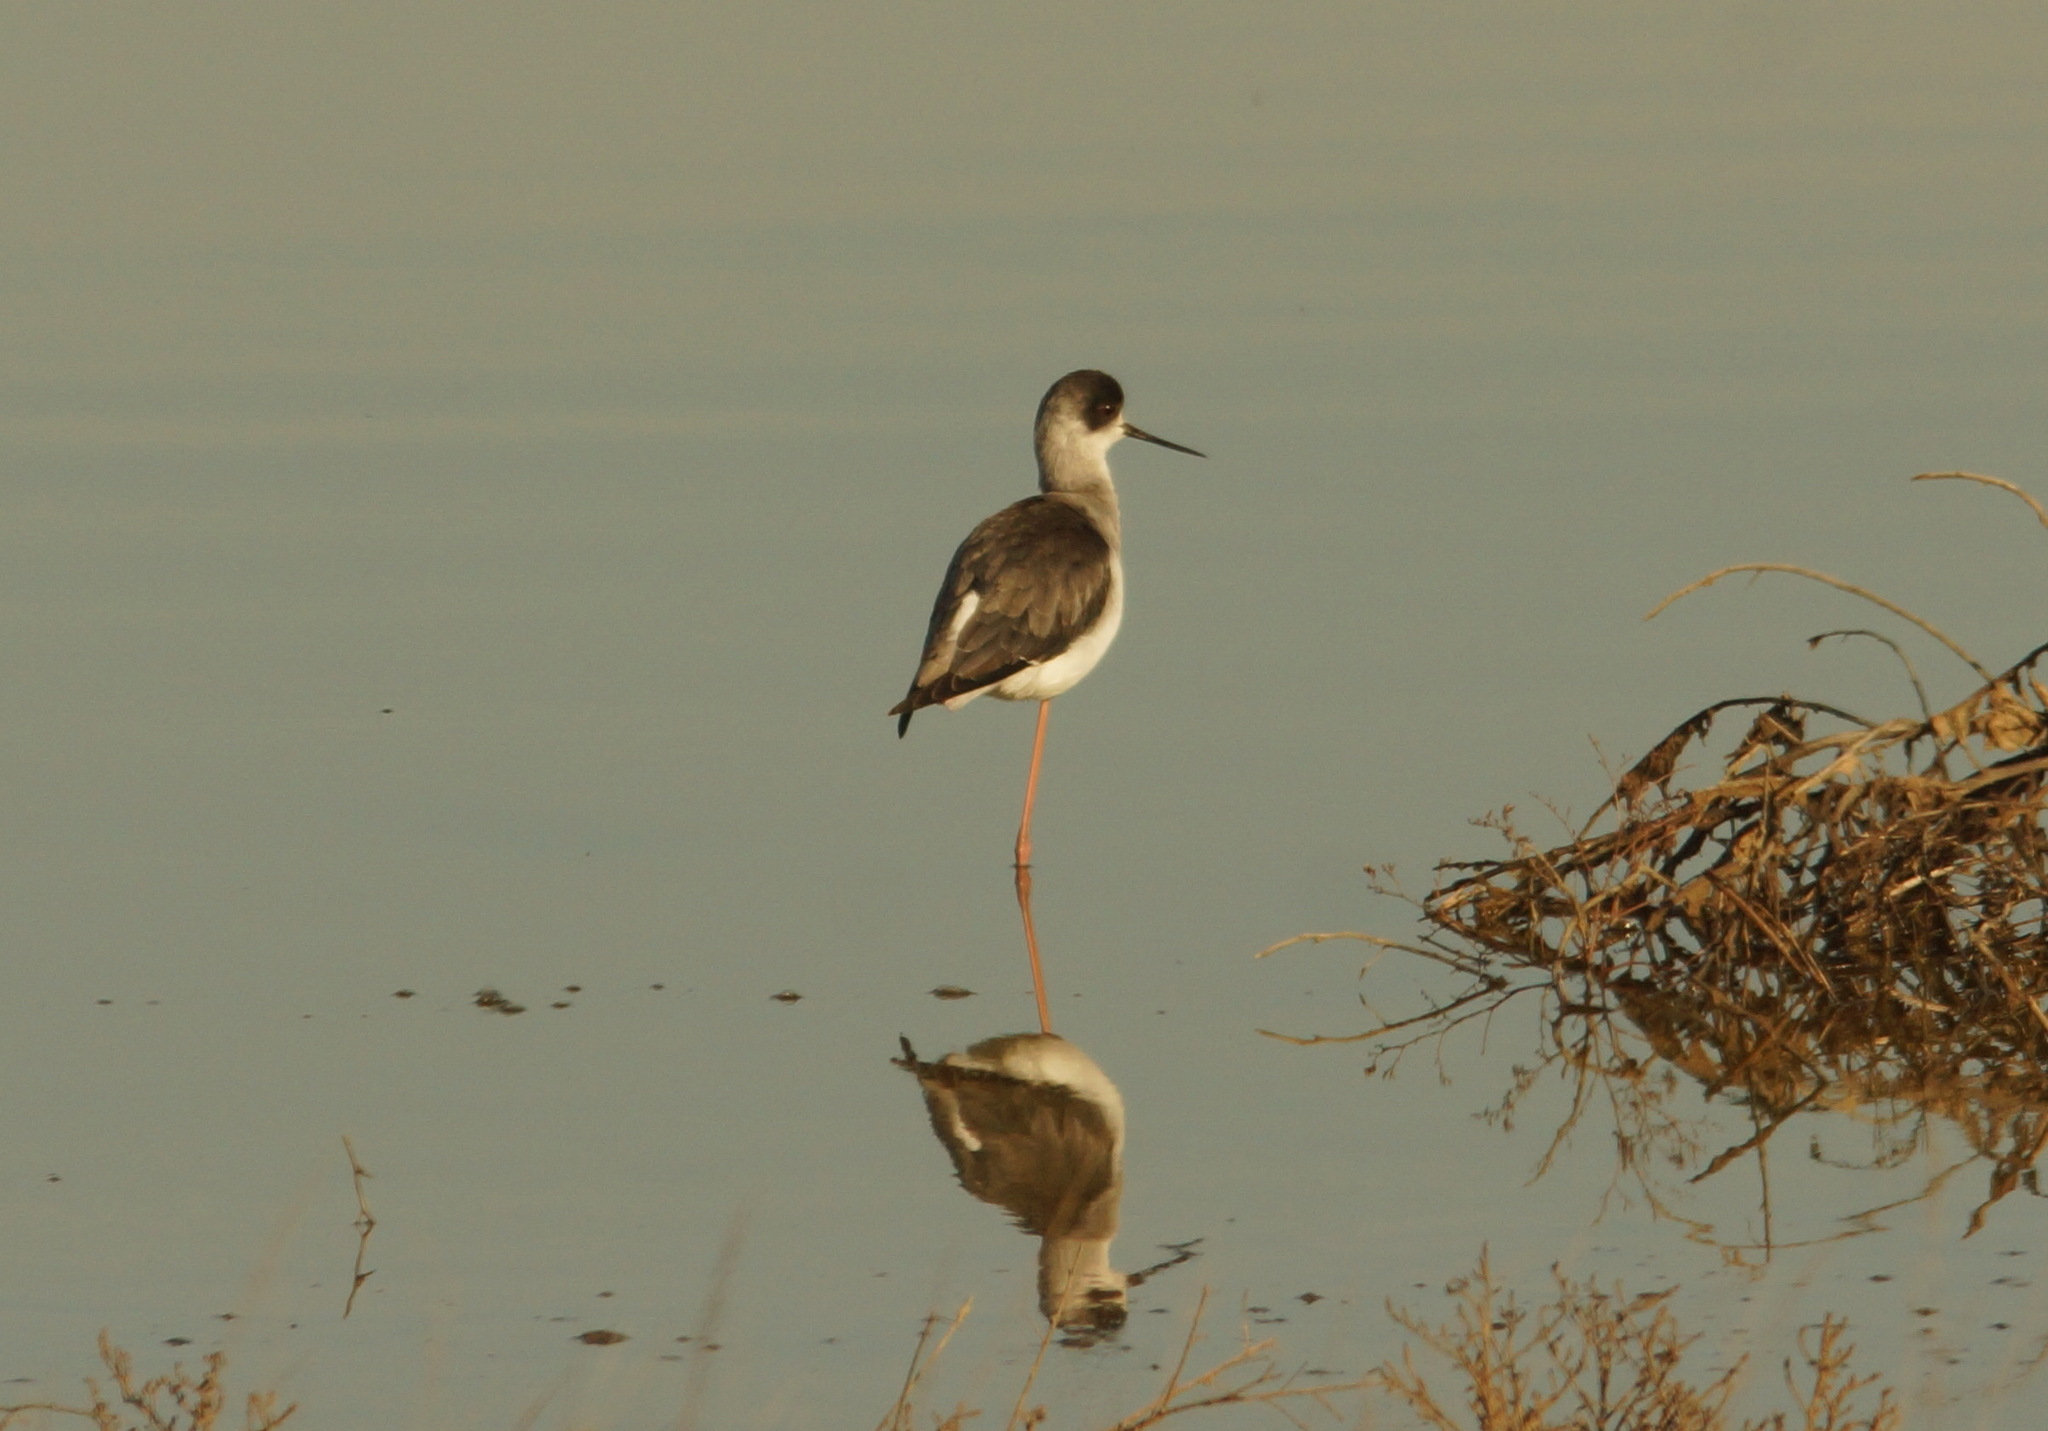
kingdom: Animalia
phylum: Chordata
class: Aves
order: Charadriiformes
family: Recurvirostridae
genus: Himantopus
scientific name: Himantopus himantopus
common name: Black-winged stilt
